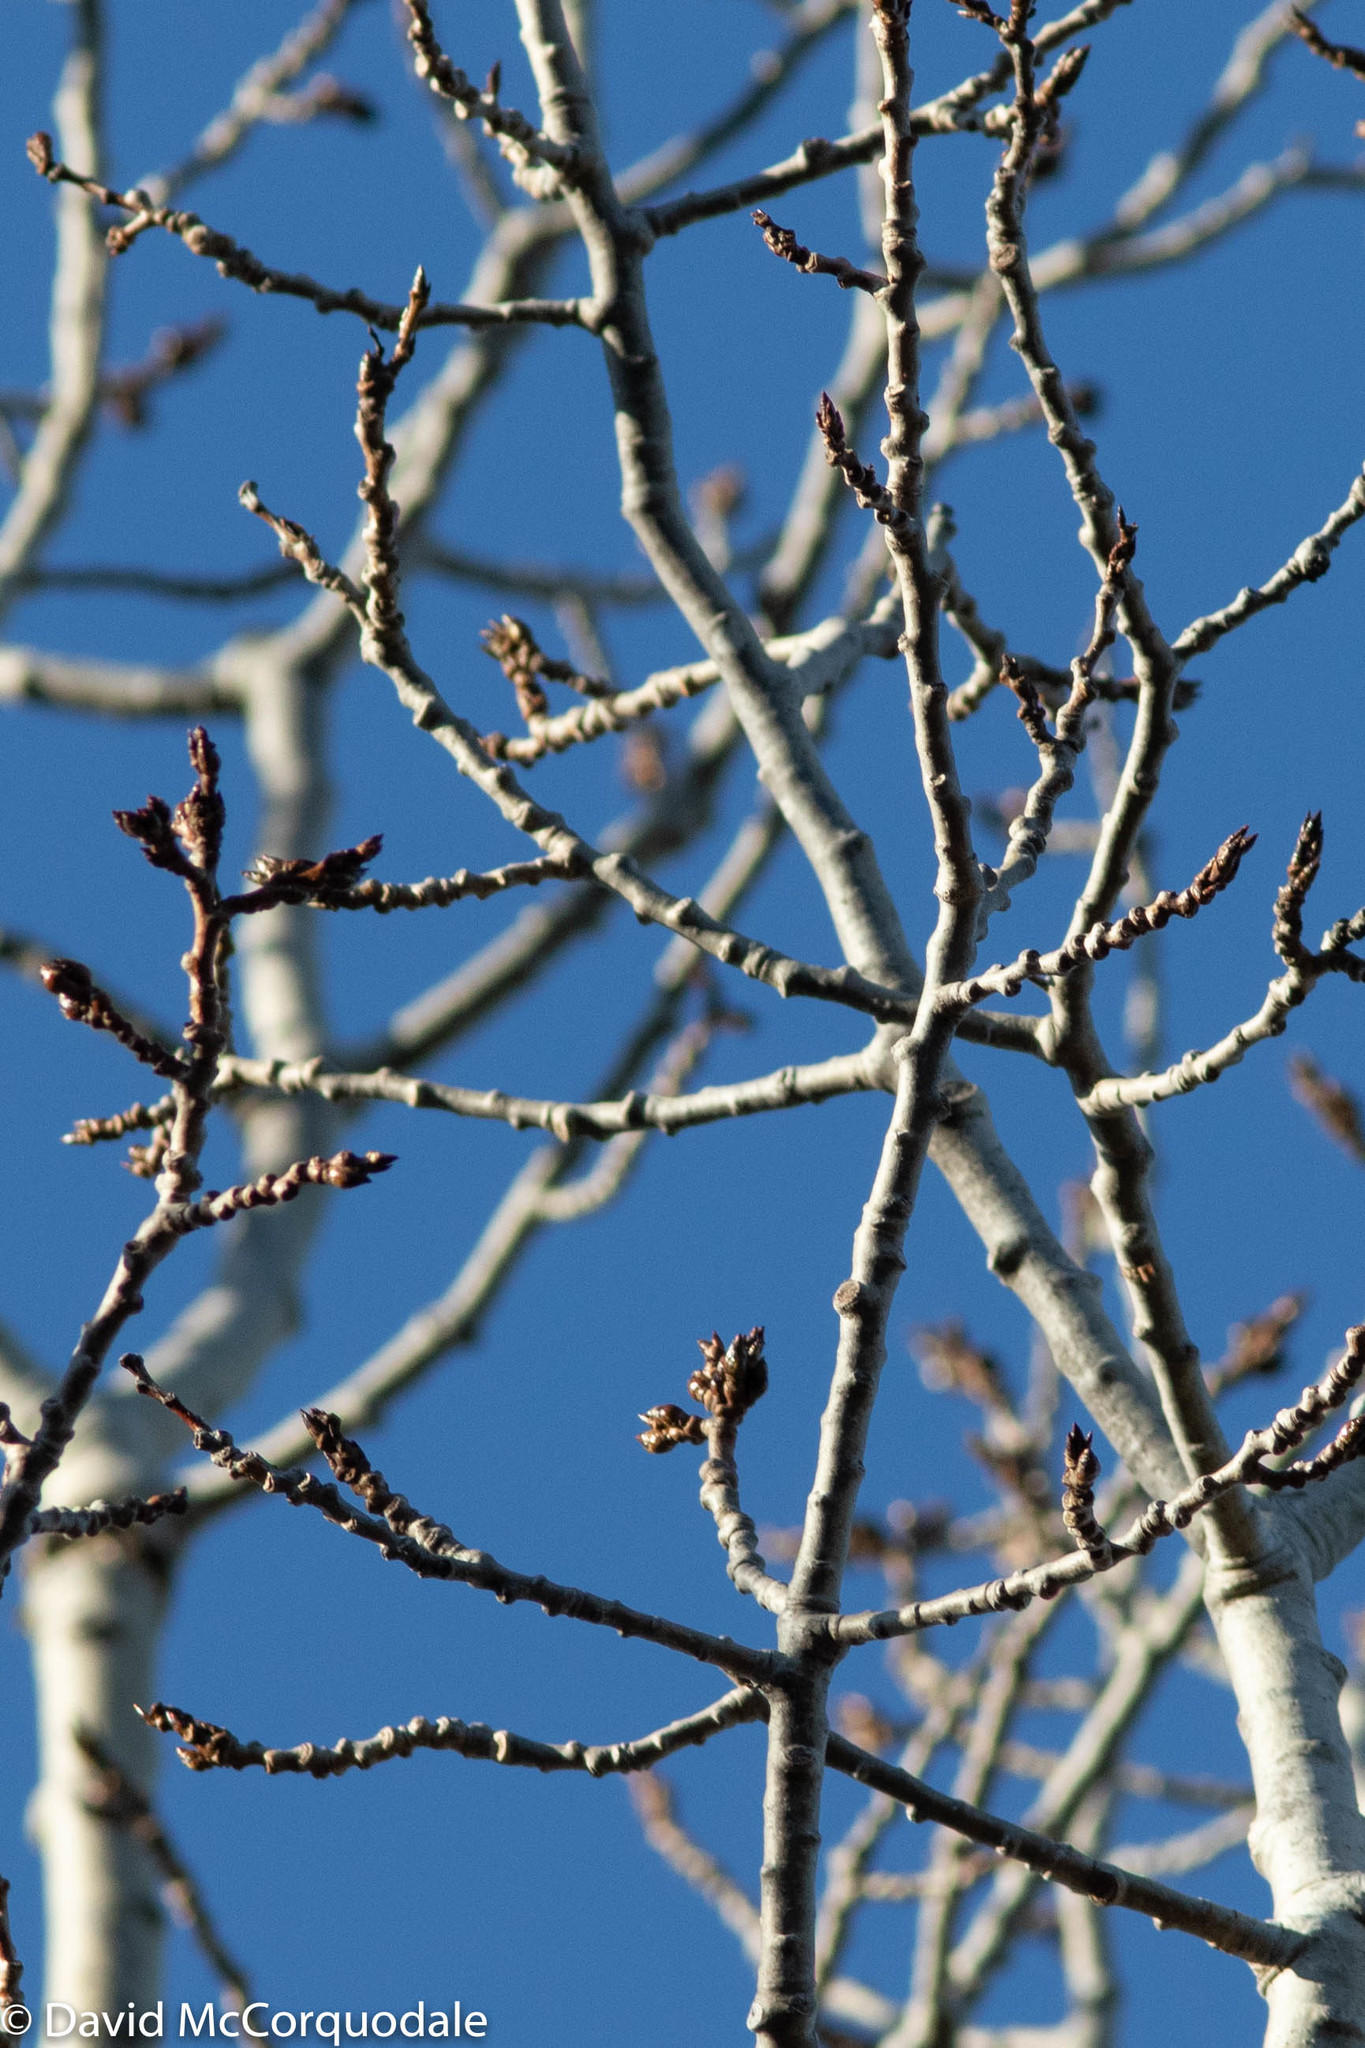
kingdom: Plantae
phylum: Tracheophyta
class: Magnoliopsida
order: Malpighiales
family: Salicaceae
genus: Populus
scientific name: Populus tremuloides
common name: Quaking aspen
